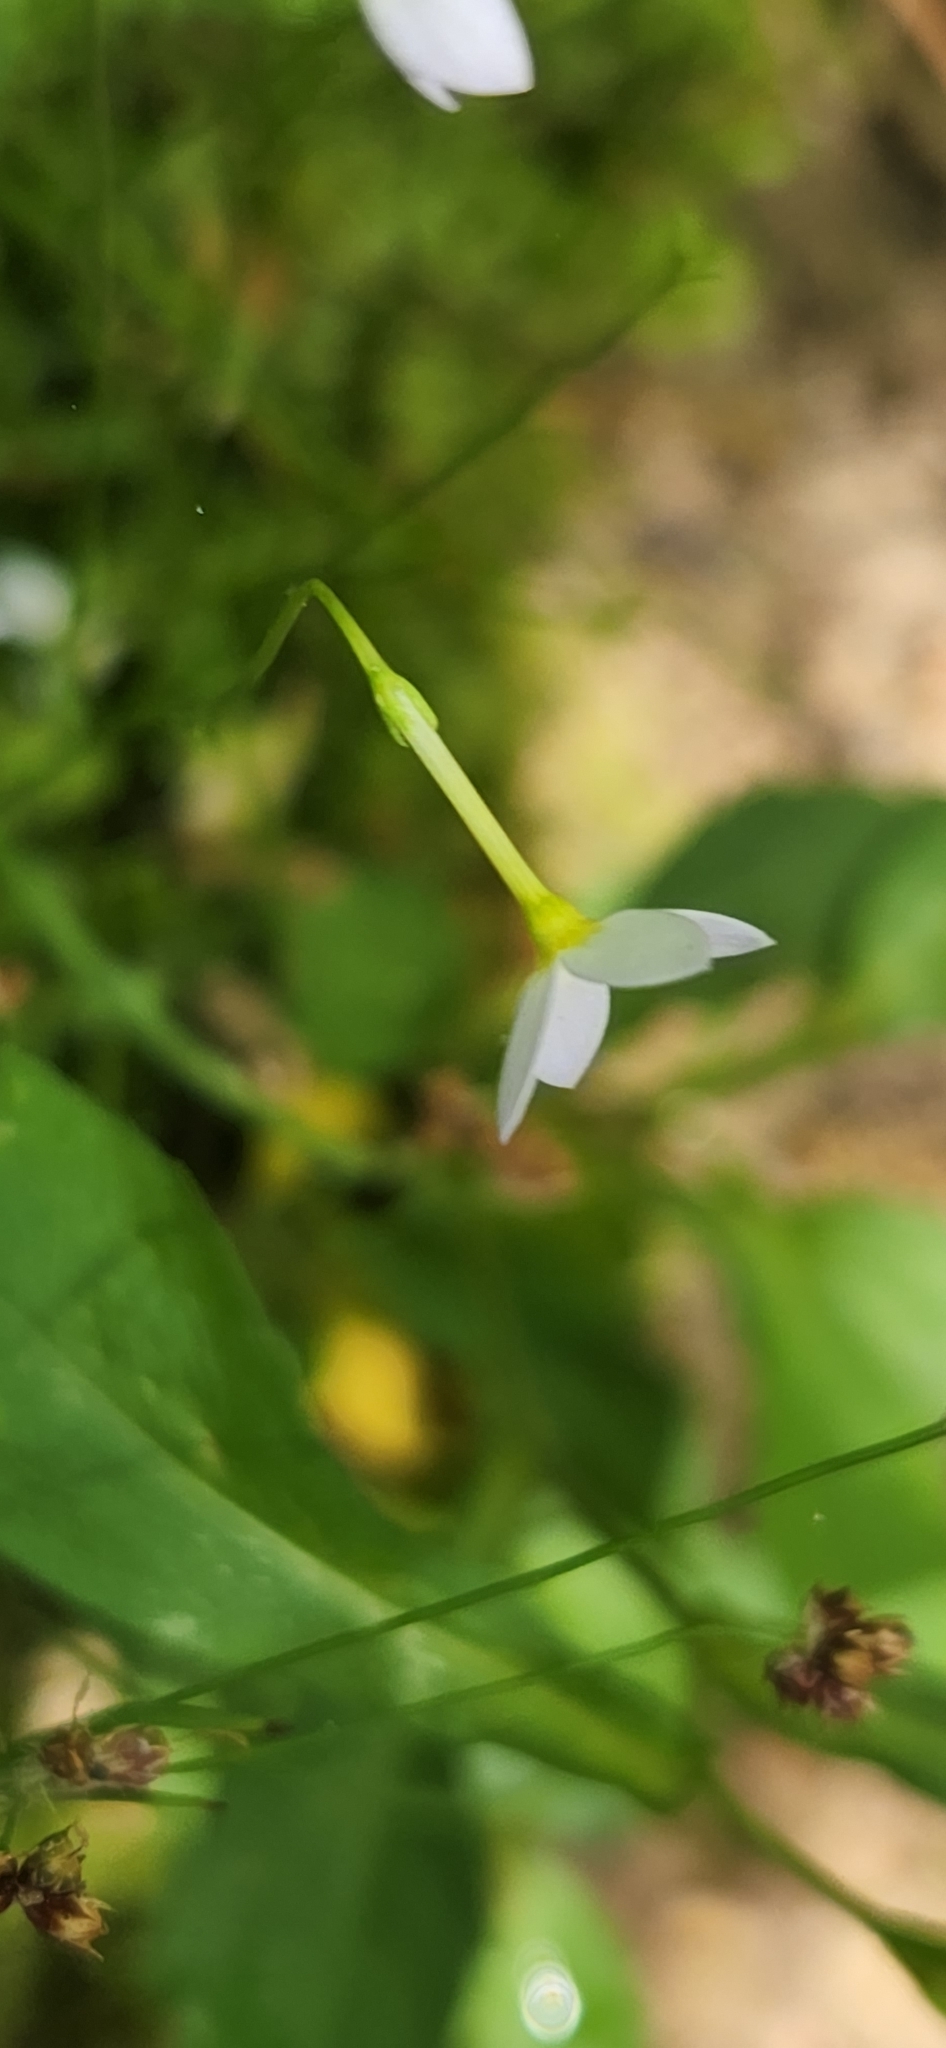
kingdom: Plantae
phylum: Tracheophyta
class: Magnoliopsida
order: Gentianales
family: Rubiaceae
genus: Houstonia
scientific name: Houstonia caerulea
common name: Bluets
